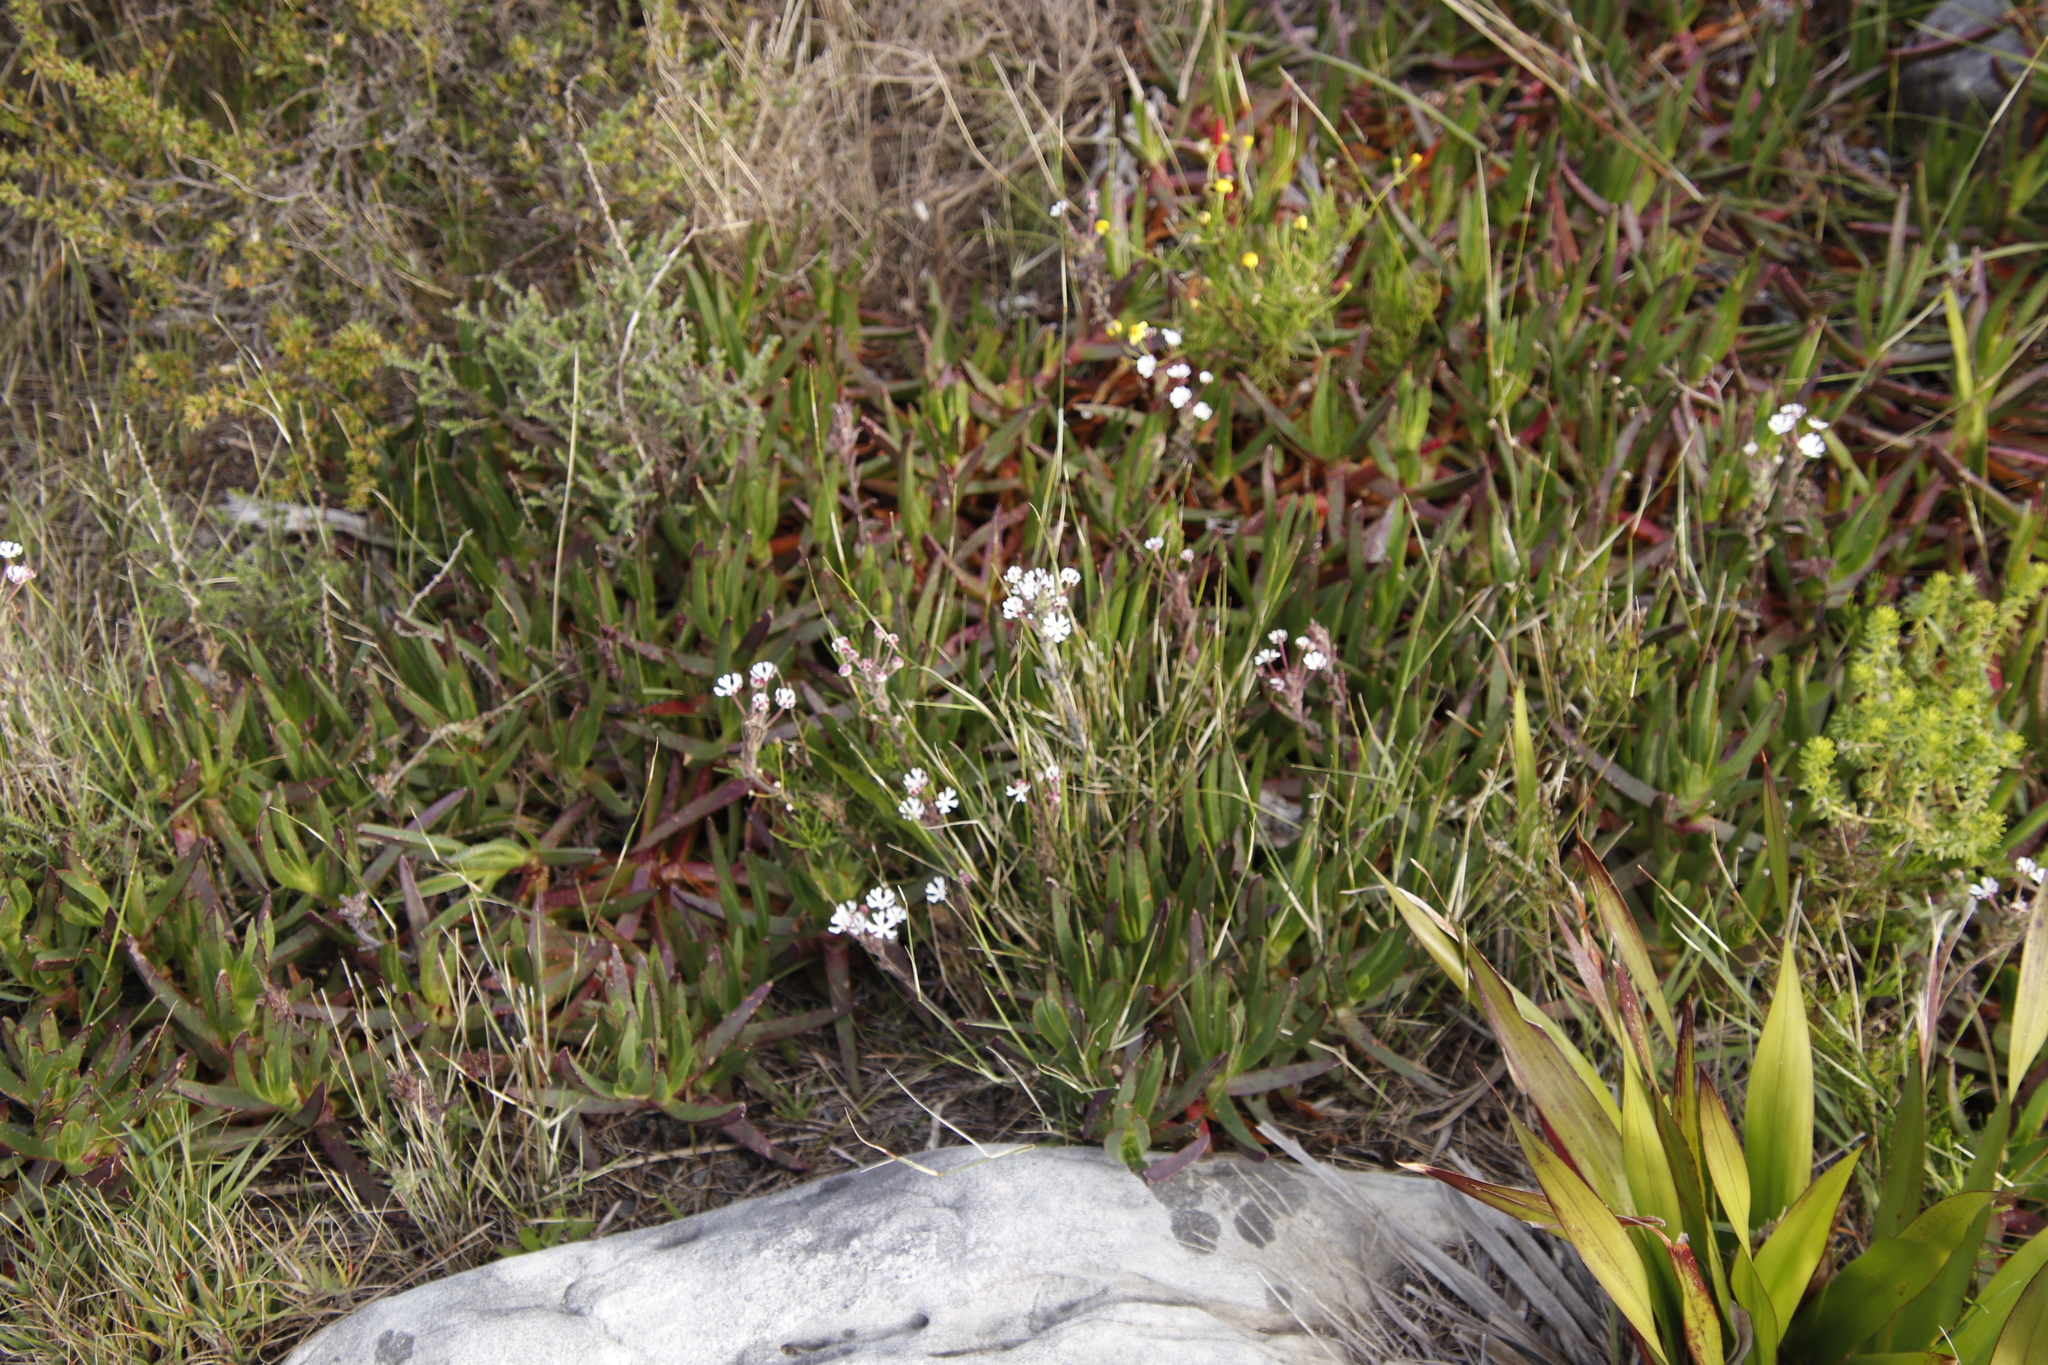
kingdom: Plantae
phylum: Tracheophyta
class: Magnoliopsida
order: Lamiales
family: Scrophulariaceae
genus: Zaluzianskya
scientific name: Zaluzianskya capensis
